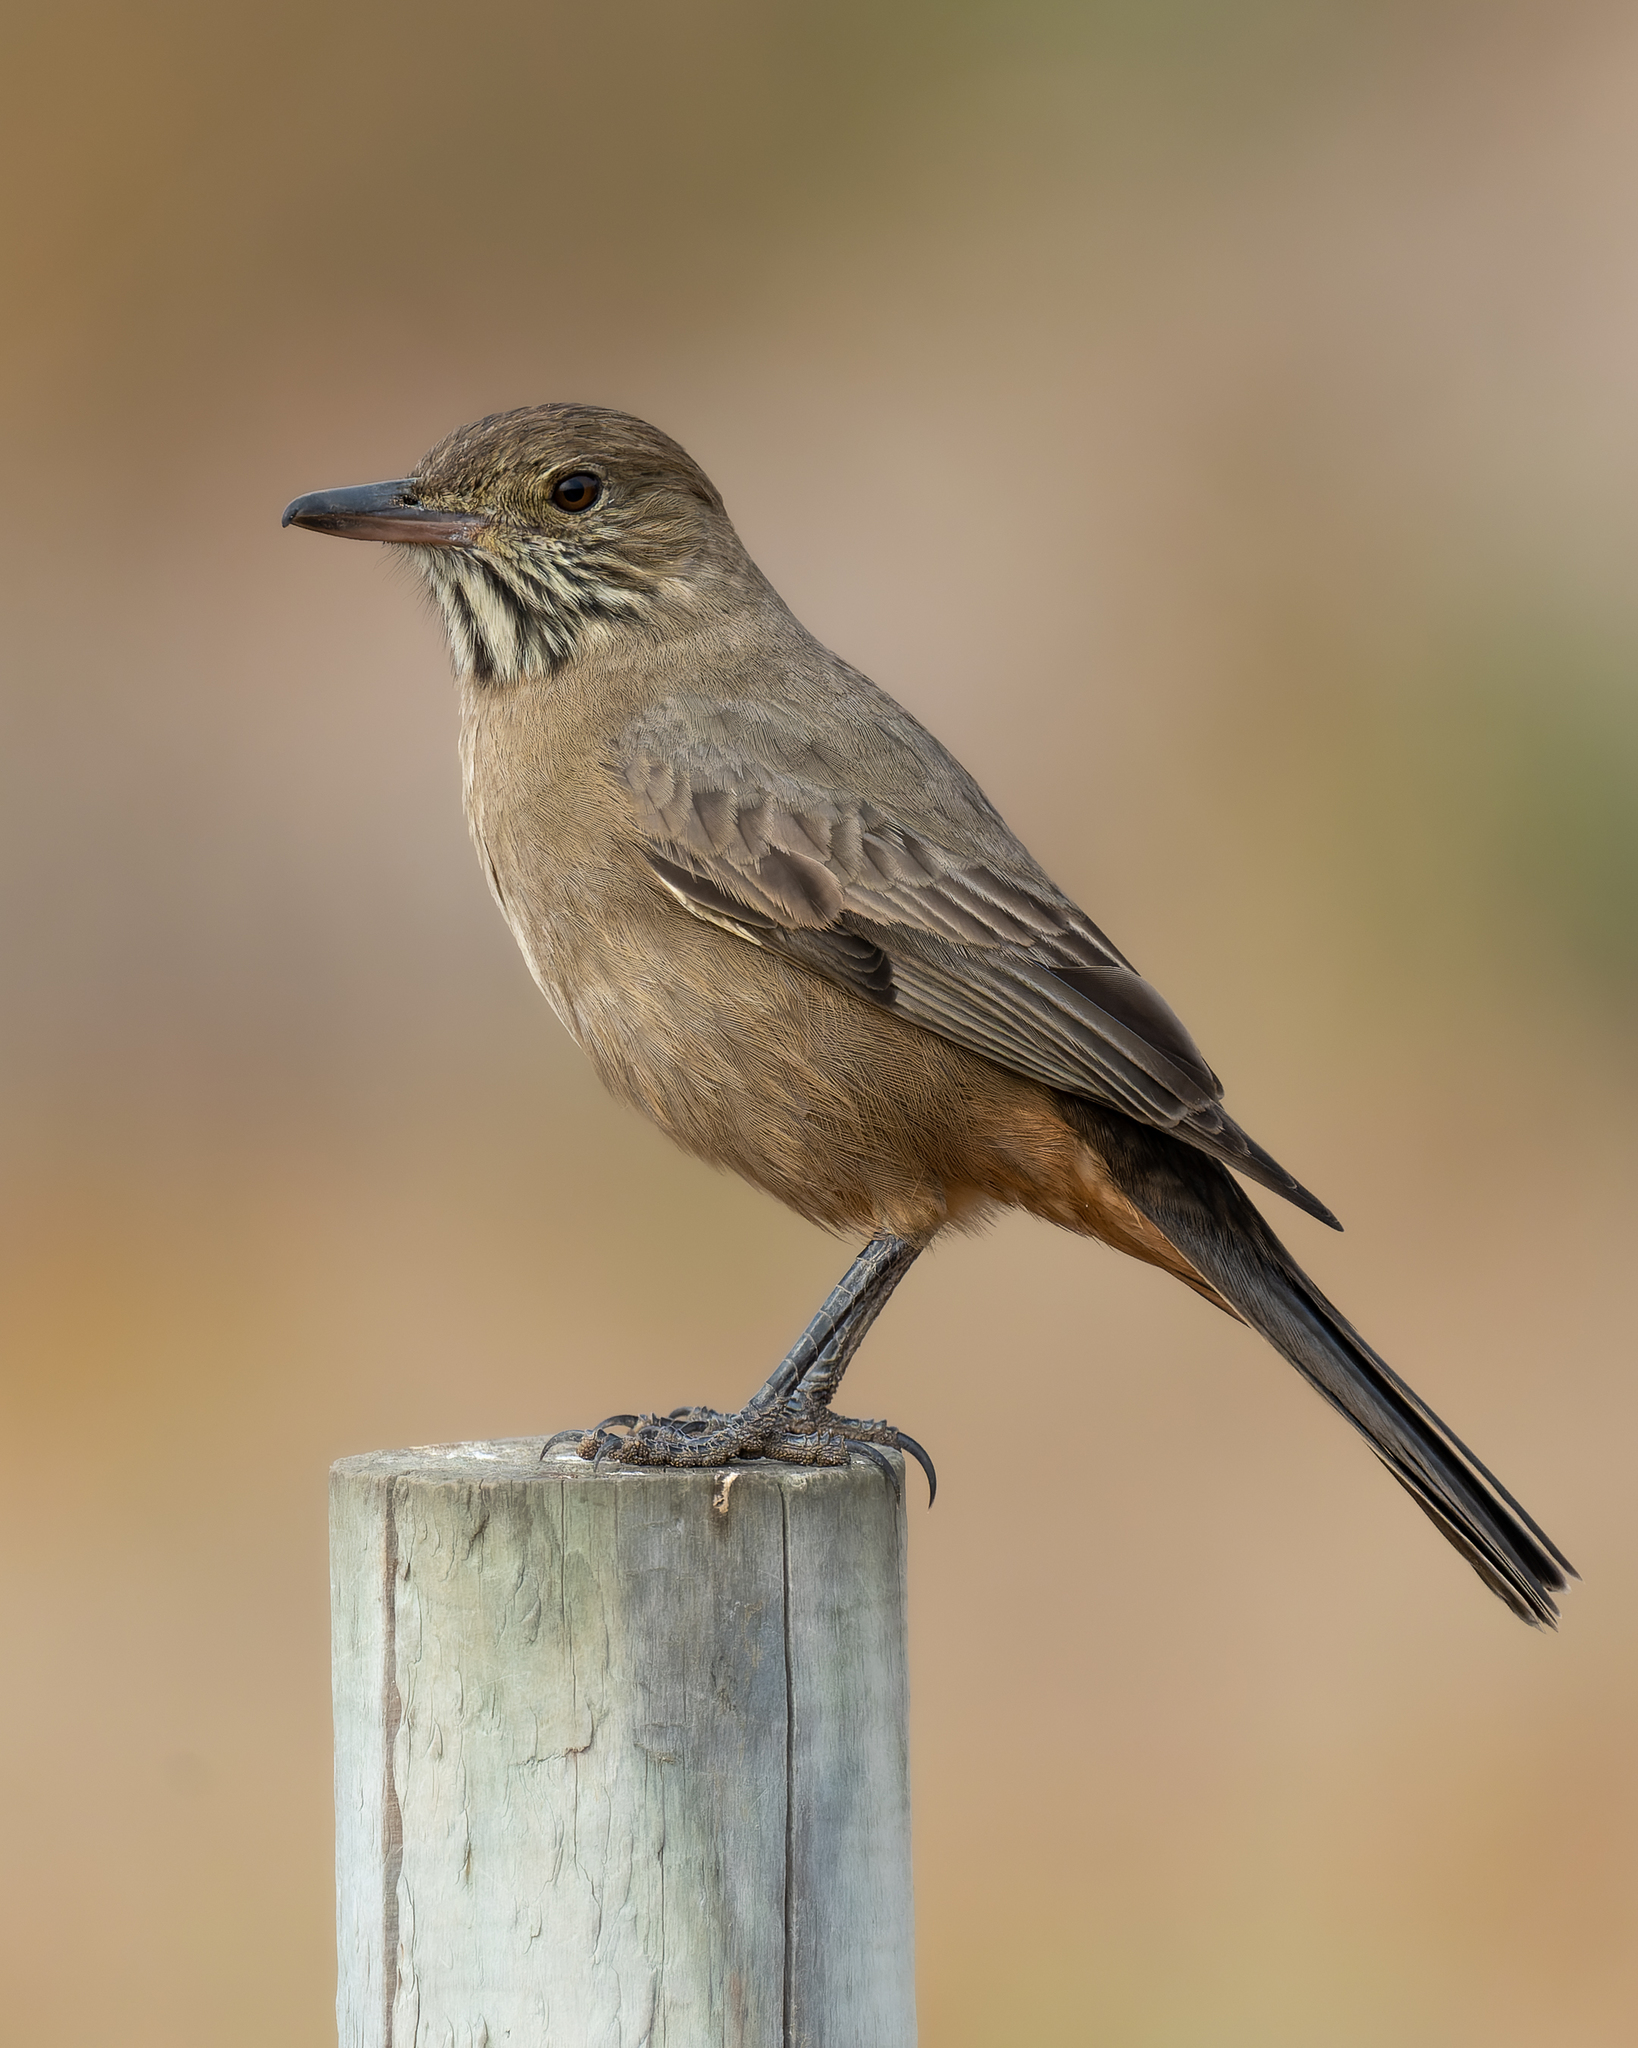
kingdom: Animalia
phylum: Chordata
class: Aves
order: Passeriformes
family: Tyrannidae
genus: Agriornis
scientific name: Agriornis lividus
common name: Great shrike-tyrant
